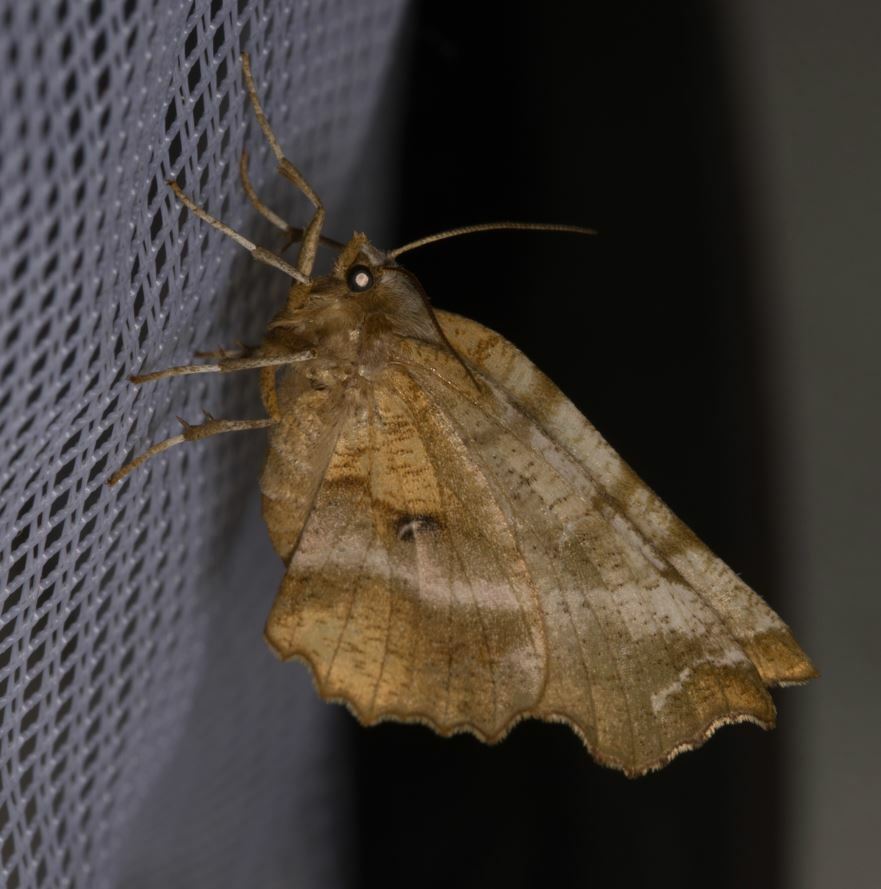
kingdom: Animalia
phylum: Arthropoda
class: Insecta
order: Lepidoptera
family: Geometridae
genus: Selenia
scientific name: Selenia dentaria
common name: Early thorn
